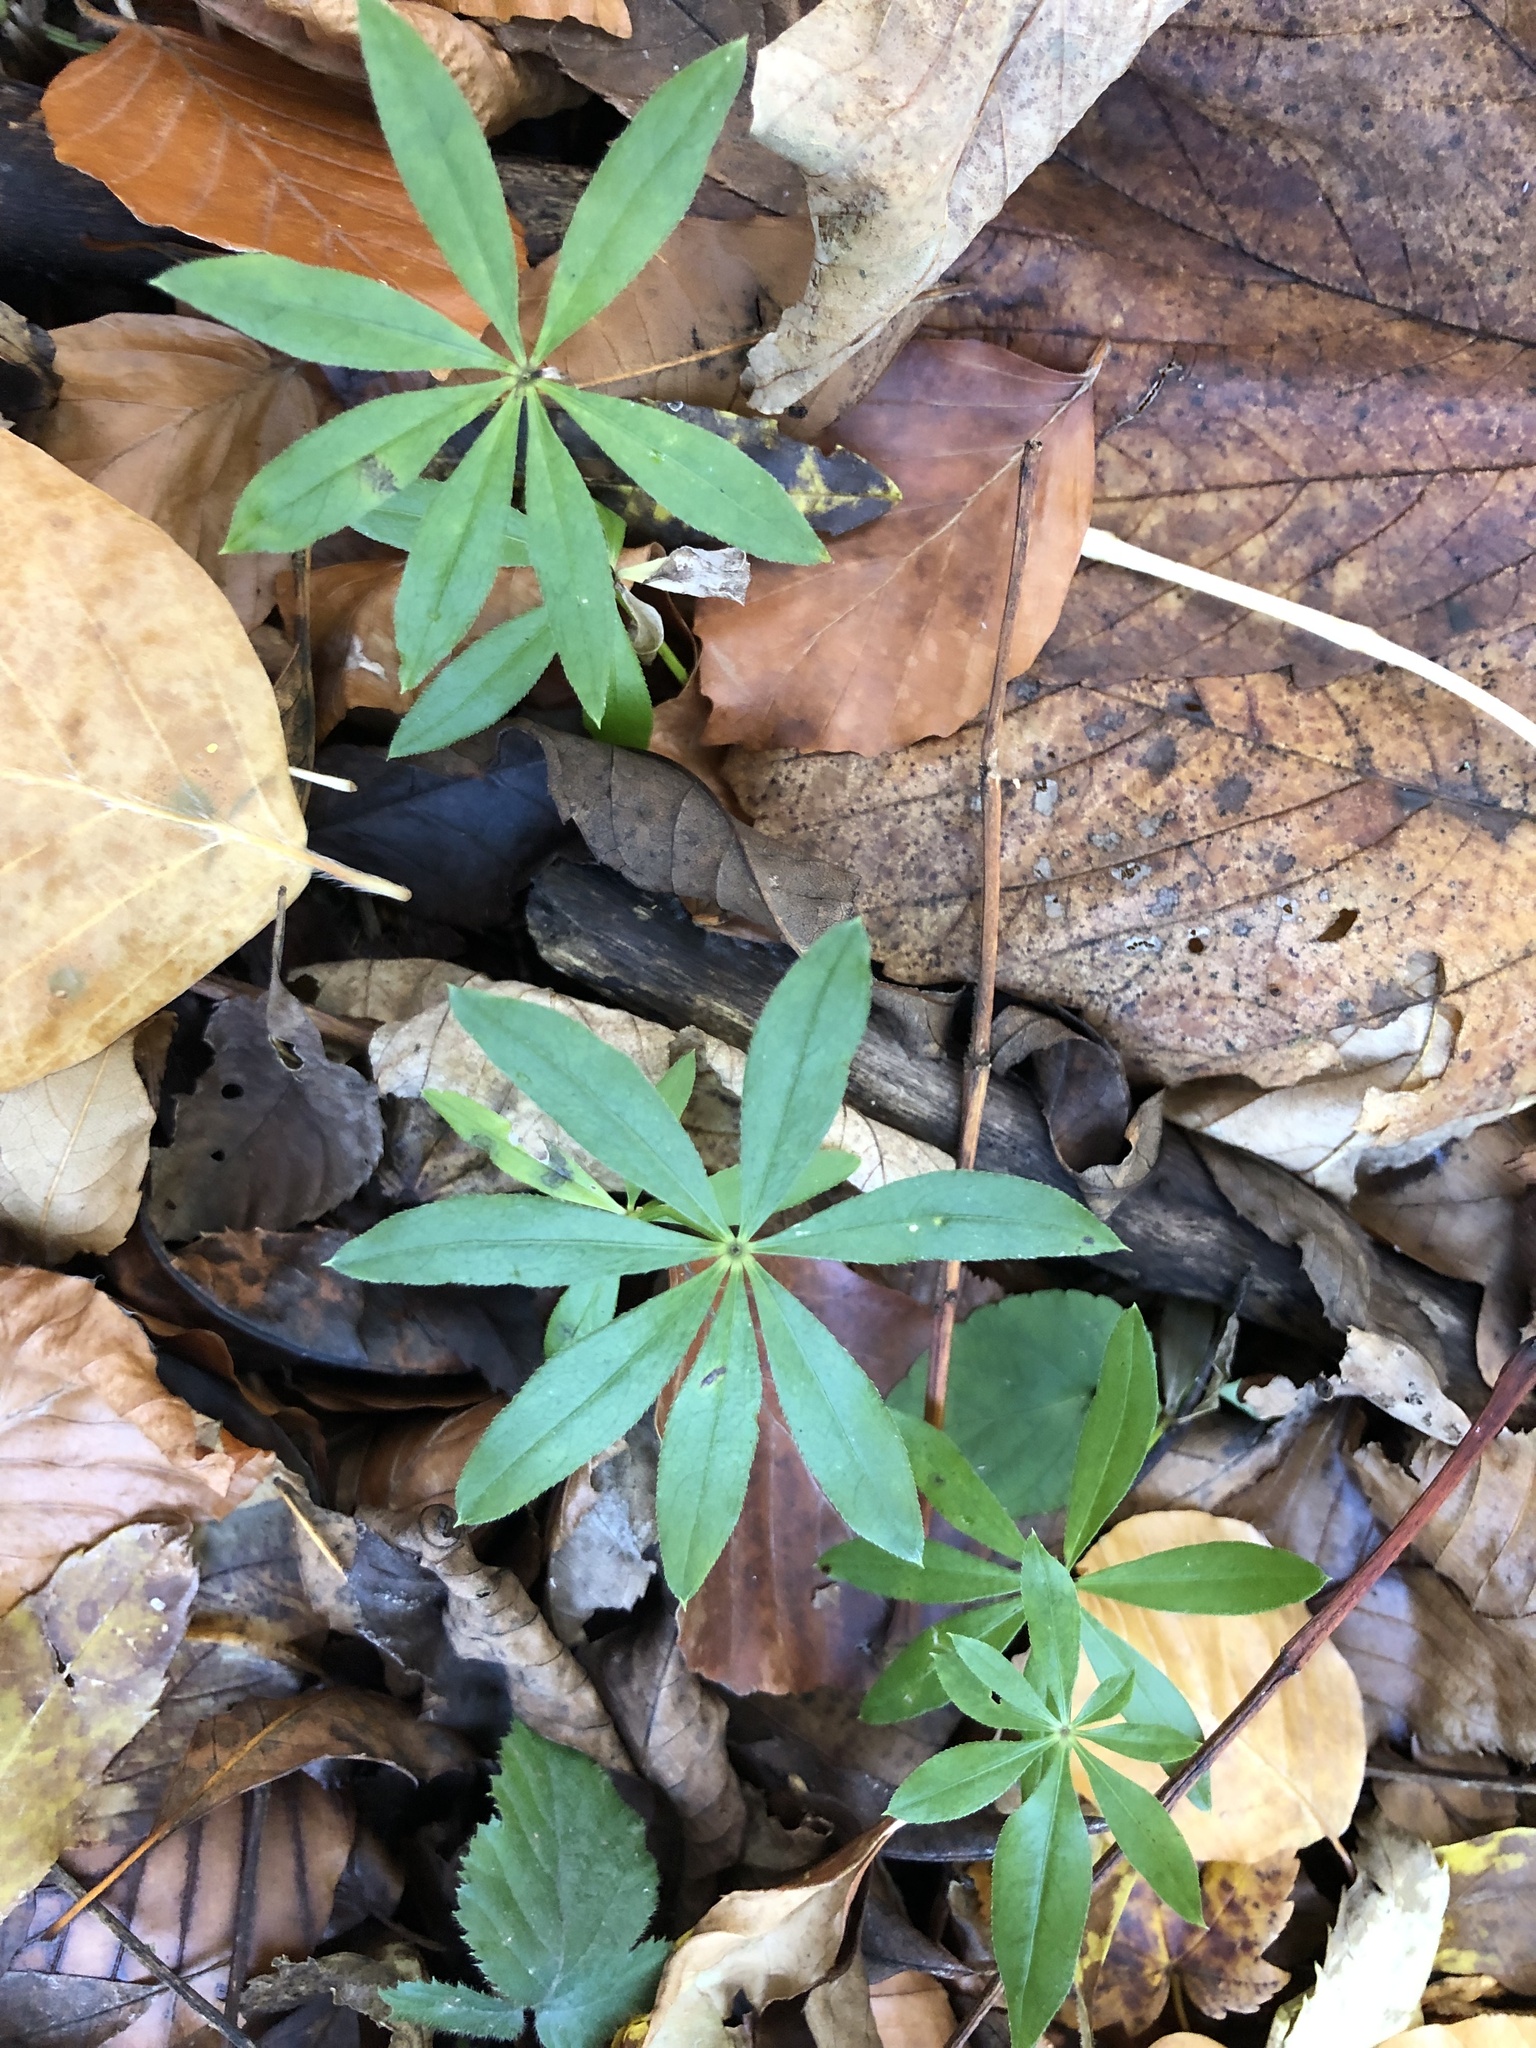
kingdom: Plantae
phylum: Tracheophyta
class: Magnoliopsida
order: Gentianales
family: Rubiaceae
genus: Galium
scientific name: Galium odoratum
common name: Sweet woodruff
